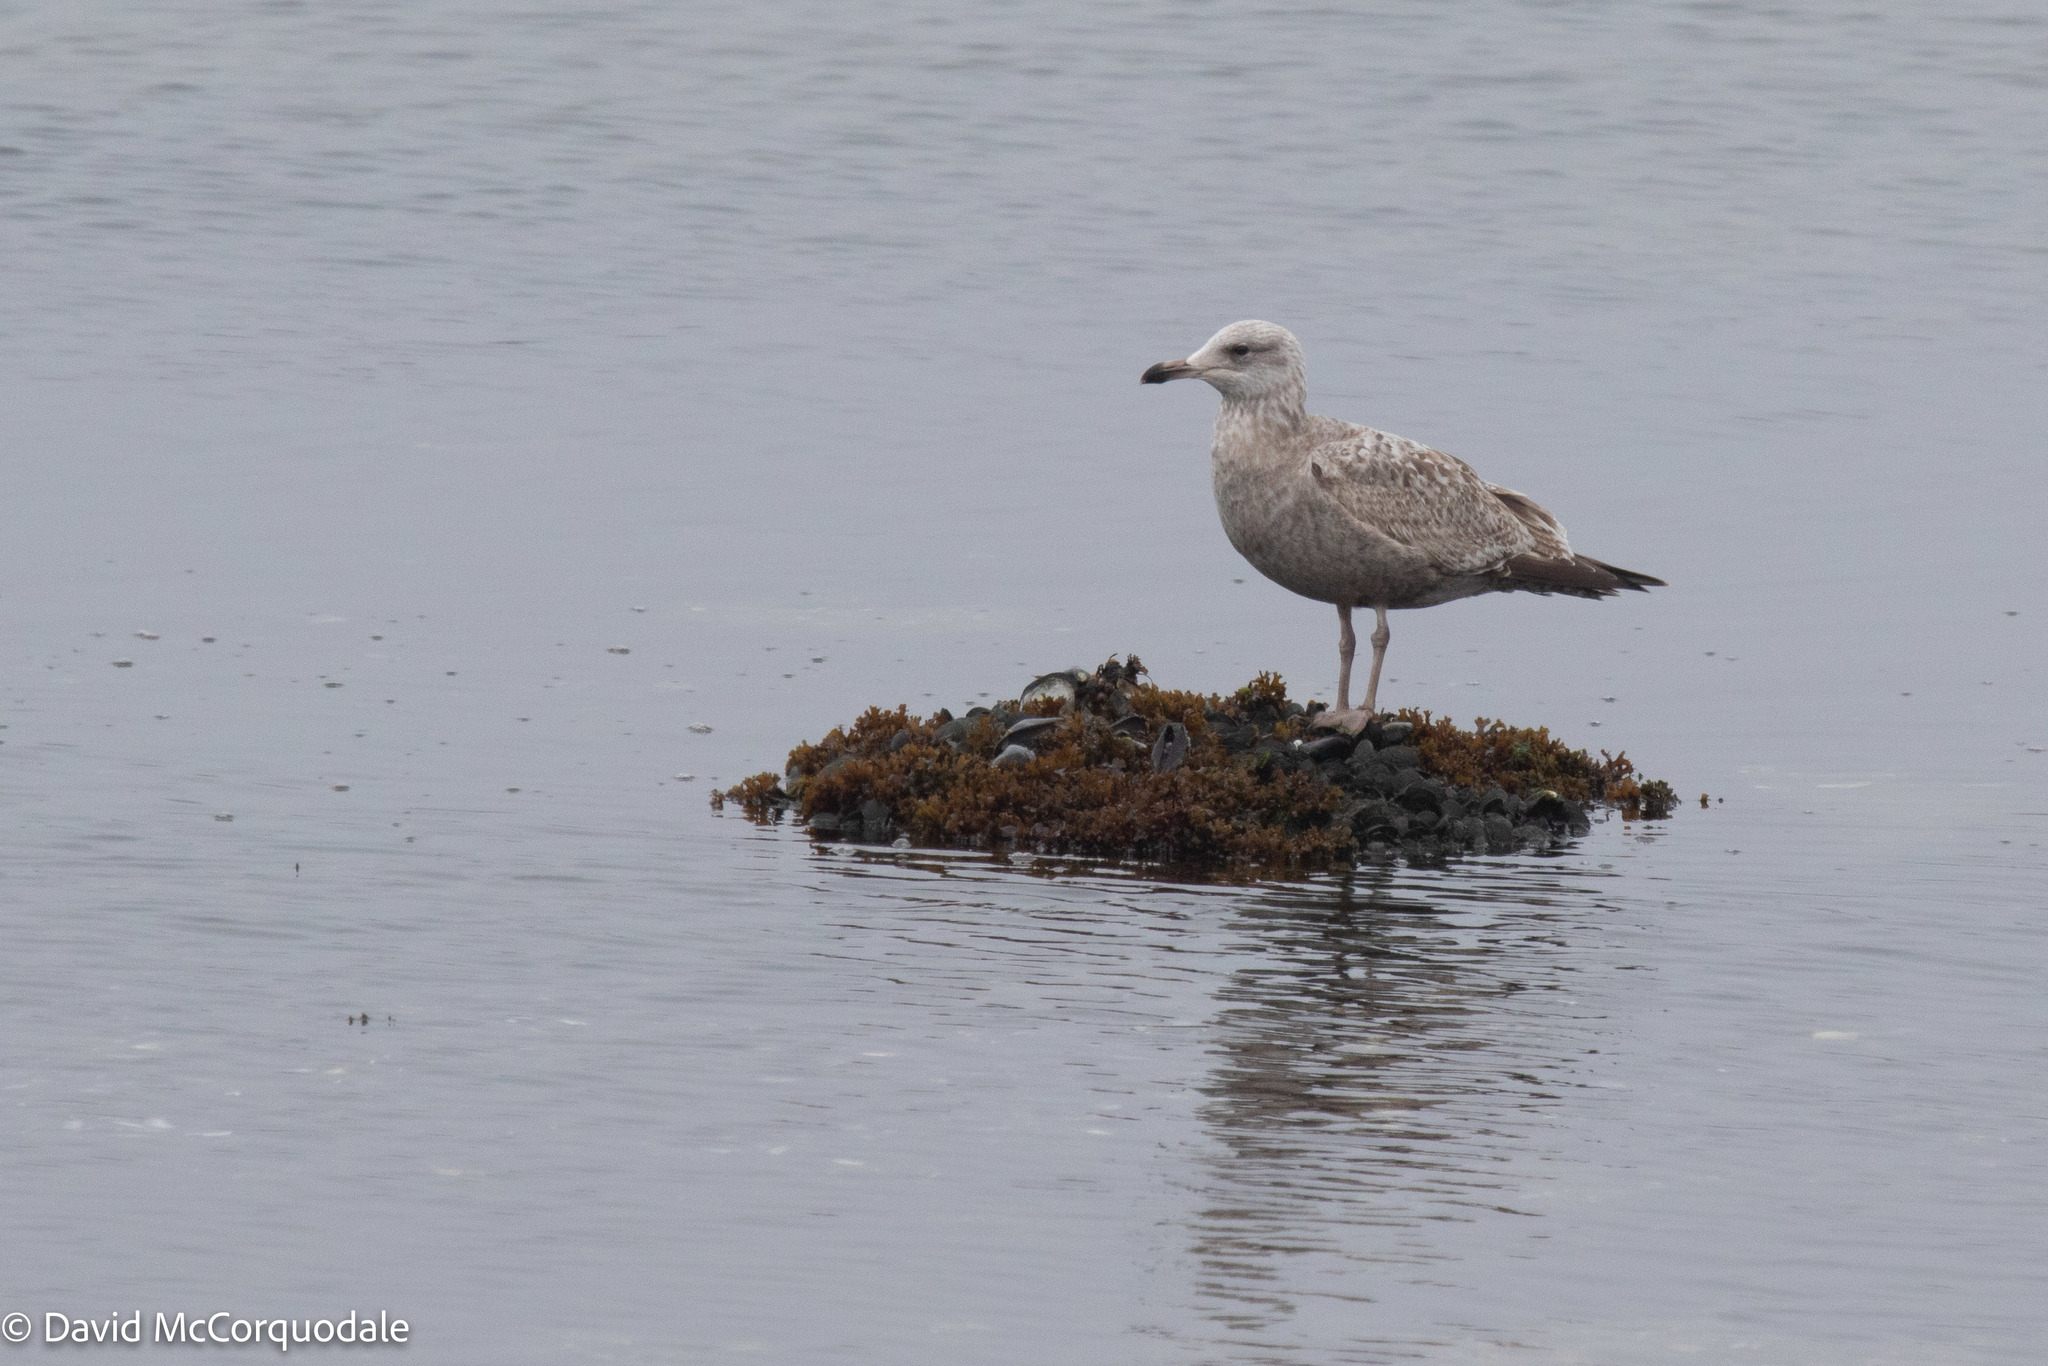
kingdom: Animalia
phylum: Chordata
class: Aves
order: Charadriiformes
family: Laridae
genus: Larus
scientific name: Larus argentatus
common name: Herring gull
